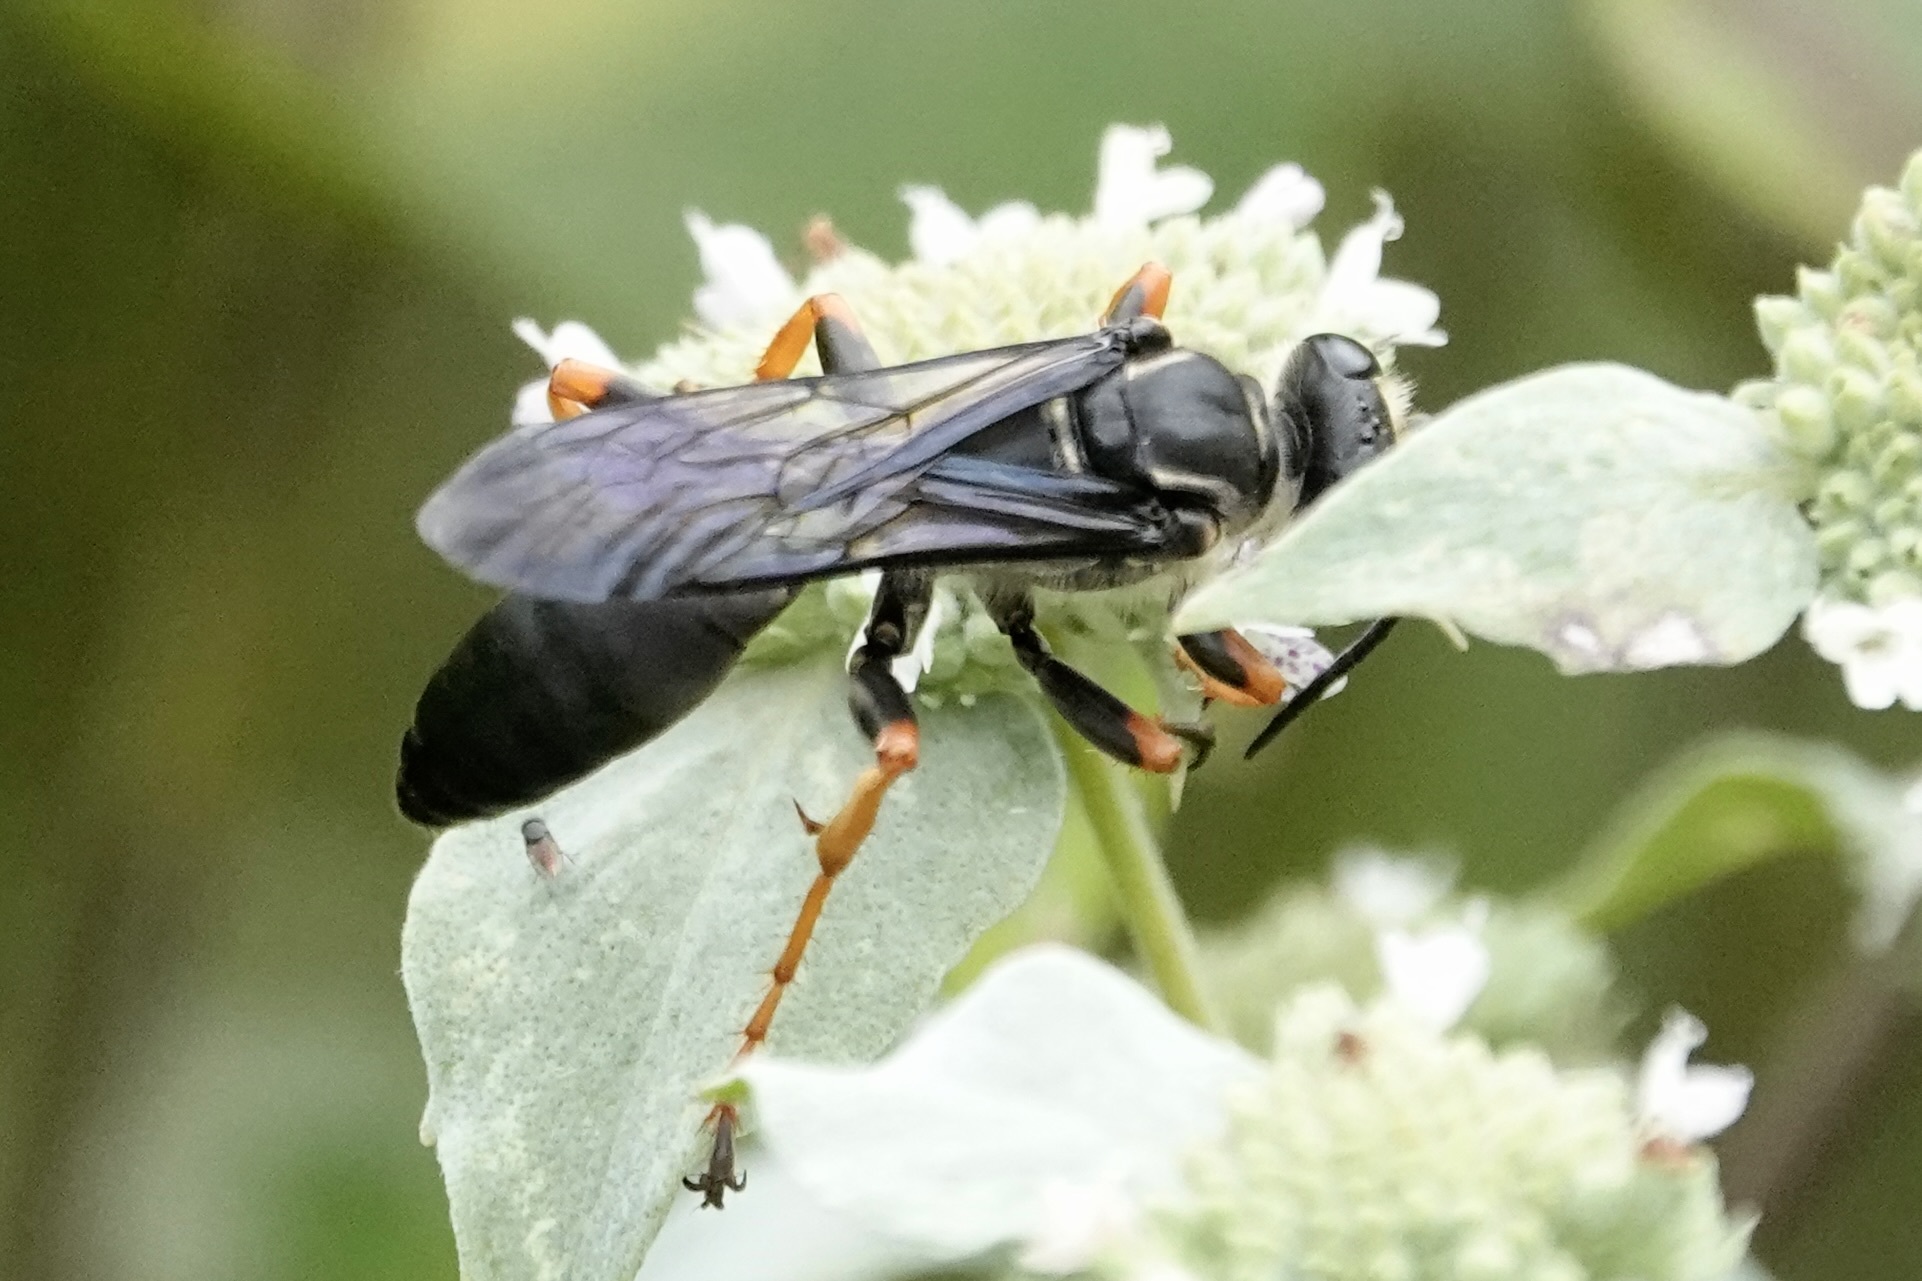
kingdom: Animalia
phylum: Arthropoda
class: Insecta
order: Hymenoptera
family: Sphecidae
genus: Sphex
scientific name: Sphex flavovestitus
